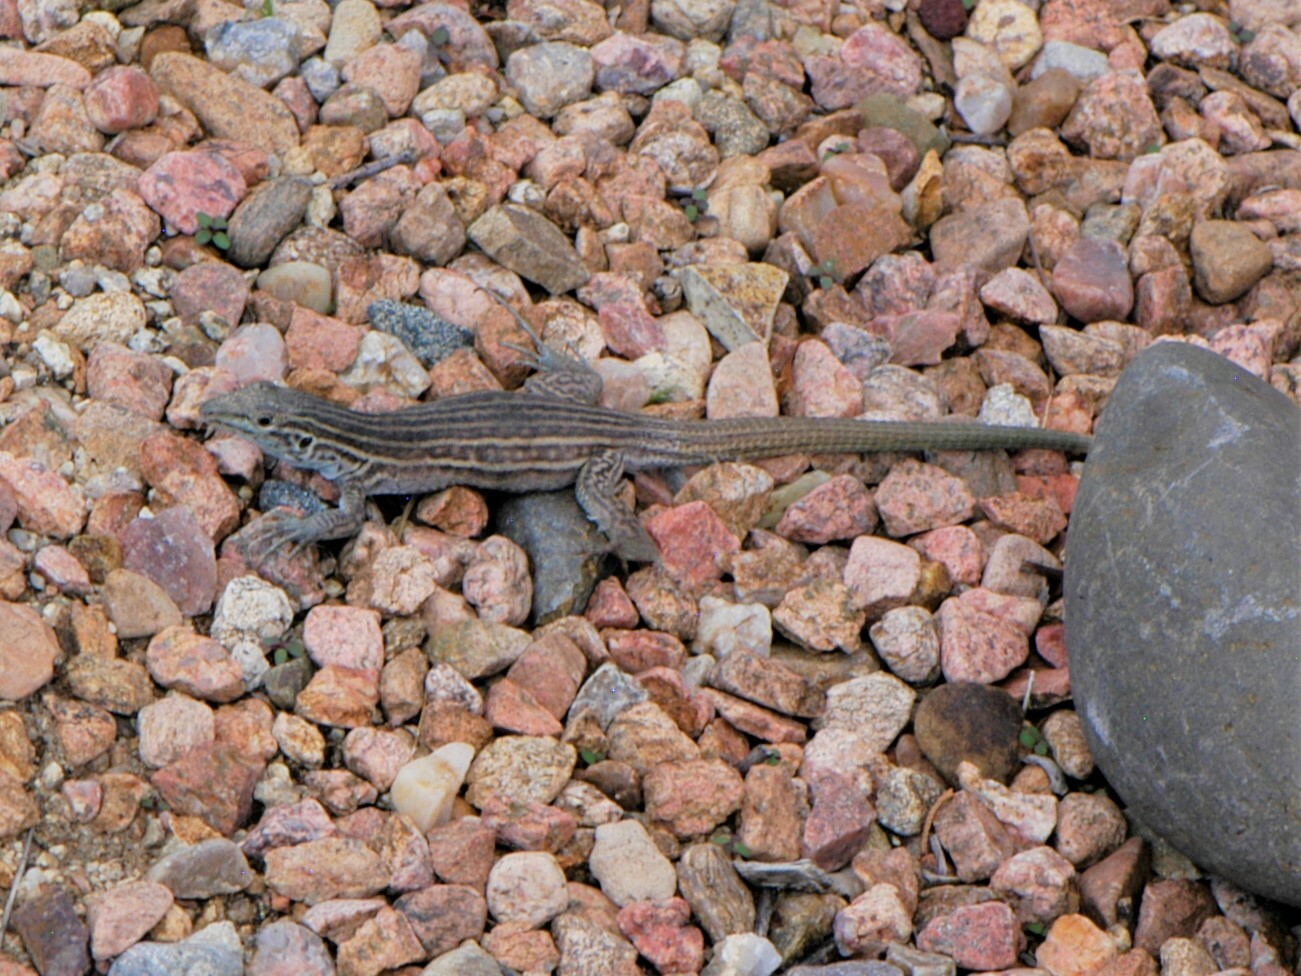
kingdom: Animalia
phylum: Chordata
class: Squamata
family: Teiidae
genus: Aspidoscelis
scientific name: Aspidoscelis neomexicanus
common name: New mexico whiptail
